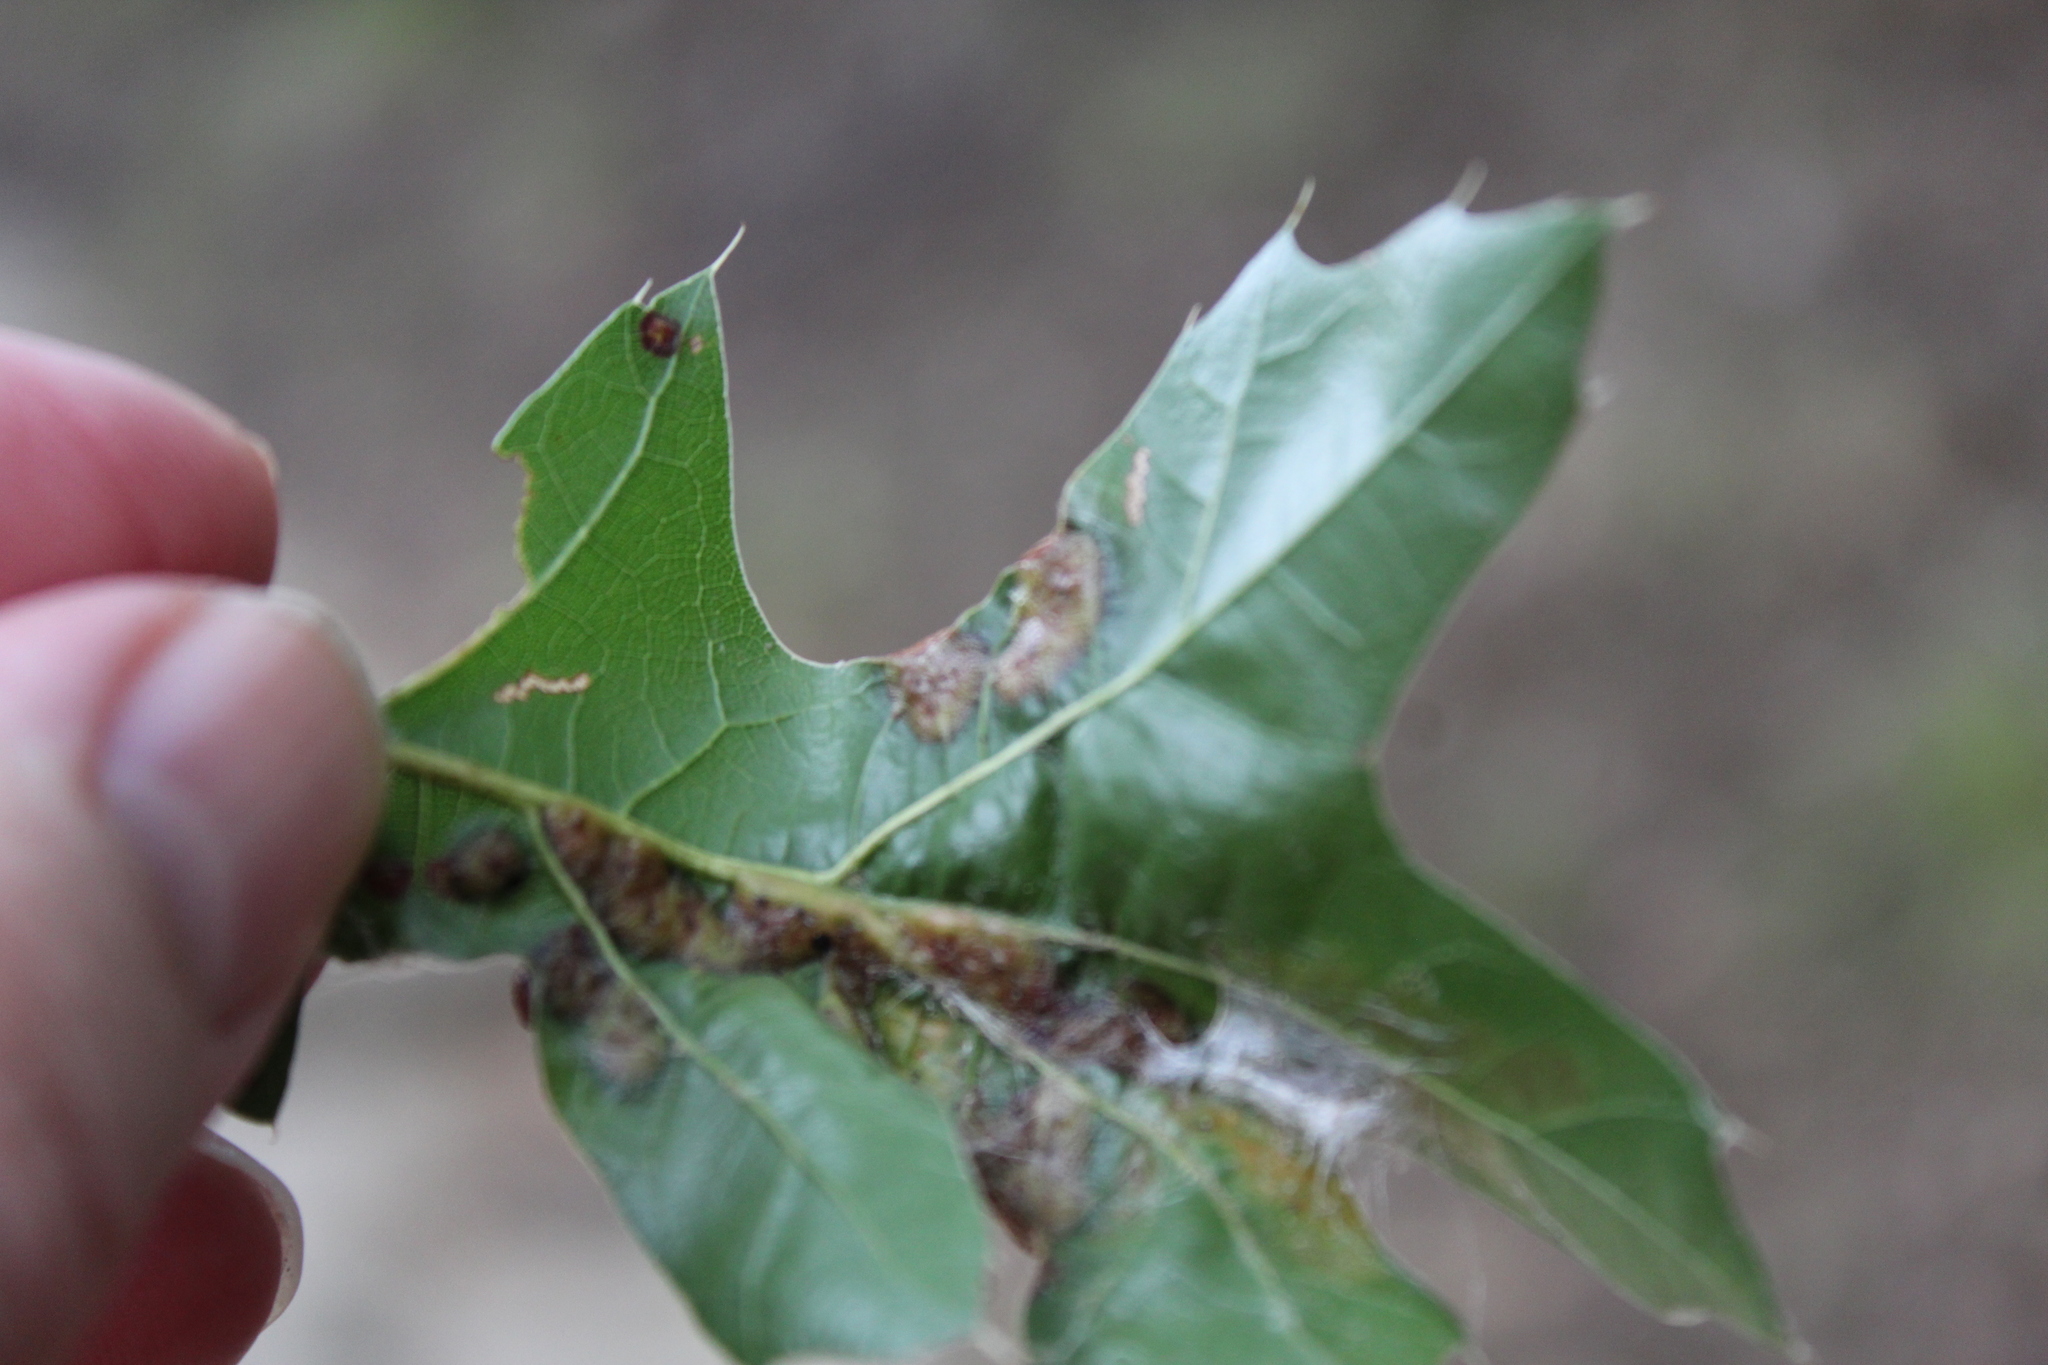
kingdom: Animalia
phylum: Arthropoda
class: Insecta
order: Diptera
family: Cecidomyiidae
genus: Polystepha
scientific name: Polystepha pilulae
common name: Oak leaf gall midge
